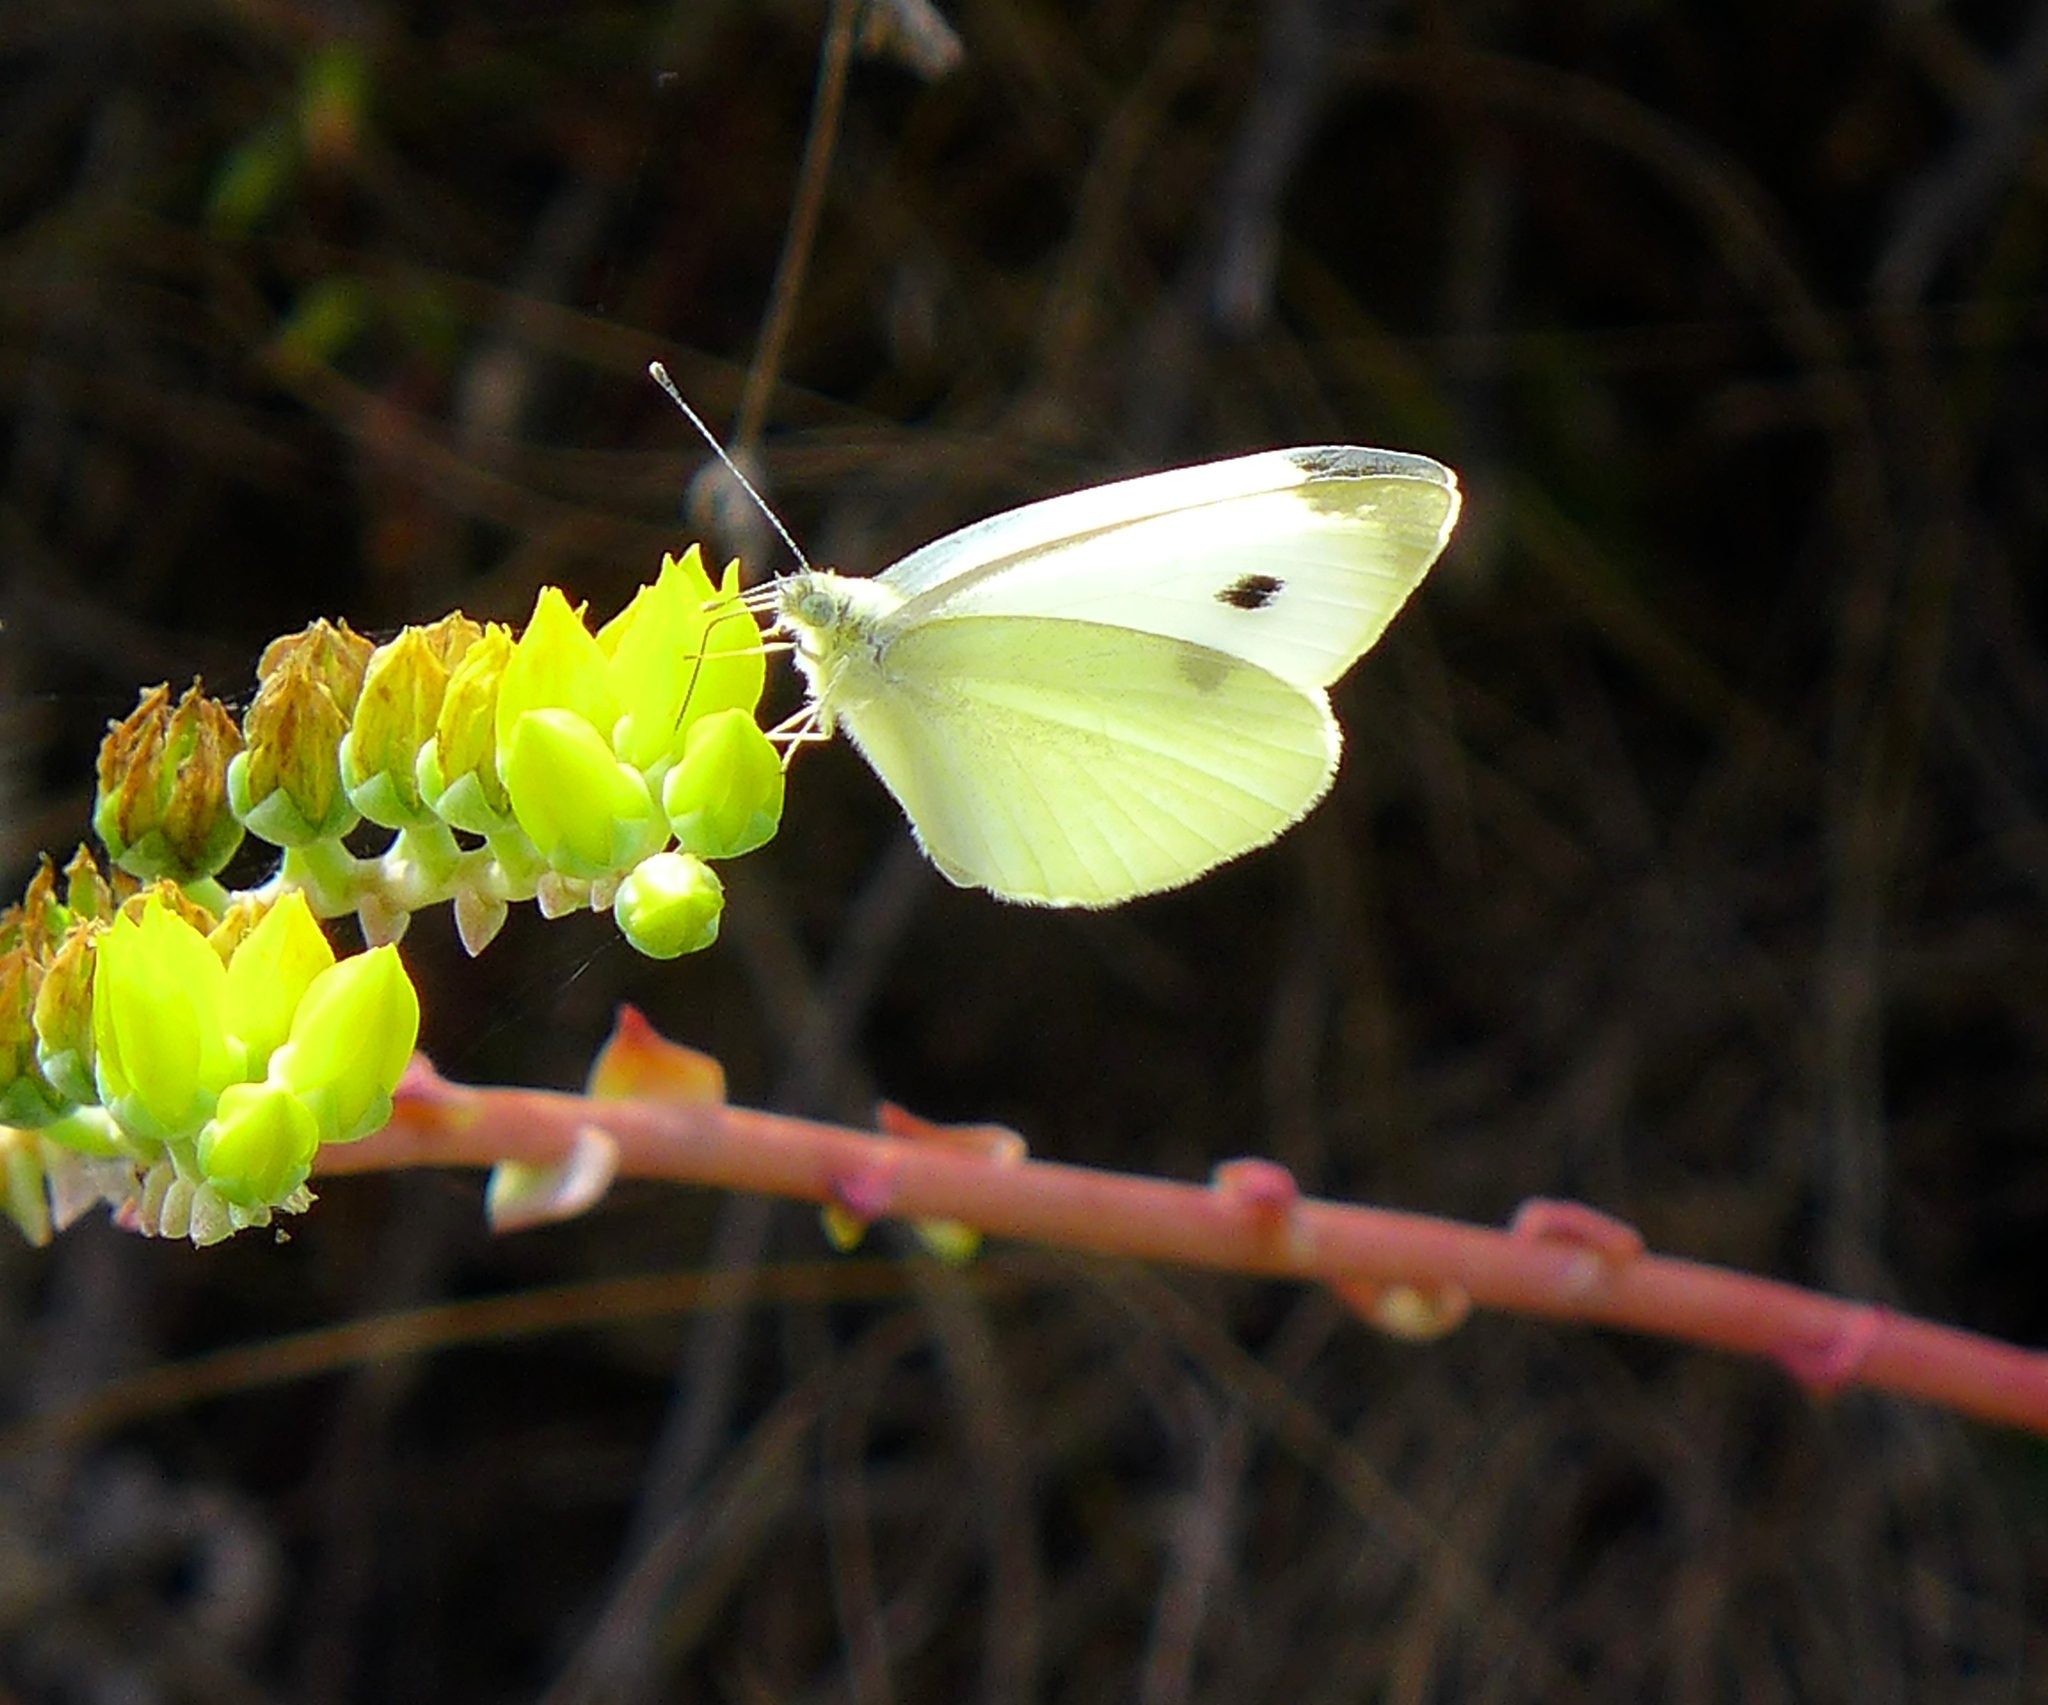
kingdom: Animalia
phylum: Arthropoda
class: Insecta
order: Lepidoptera
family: Pieridae
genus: Pieris
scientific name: Pieris rapae
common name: Small white
